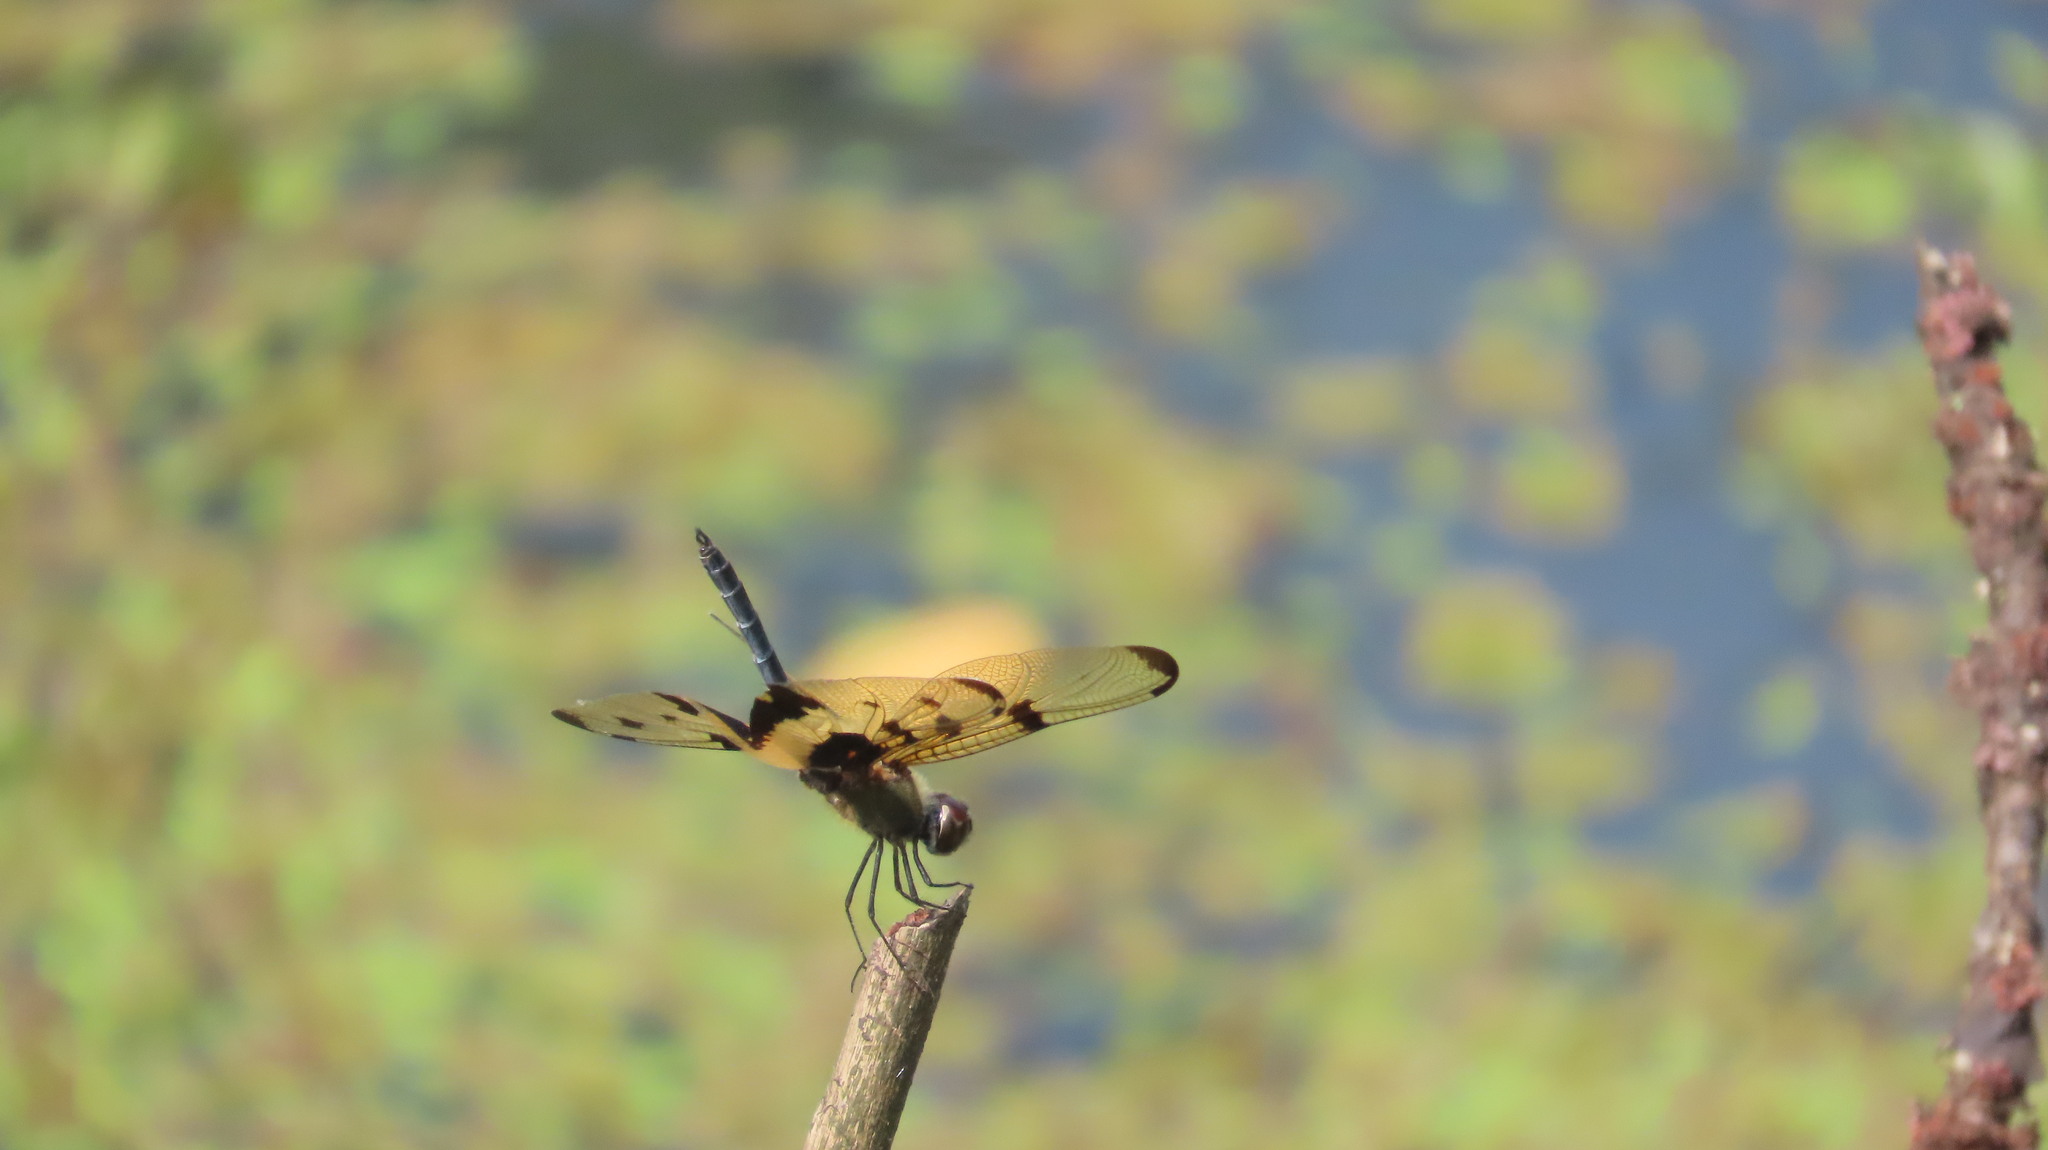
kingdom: Animalia
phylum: Arthropoda
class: Insecta
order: Odonata
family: Libellulidae
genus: Rhyothemis
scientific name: Rhyothemis variegata
